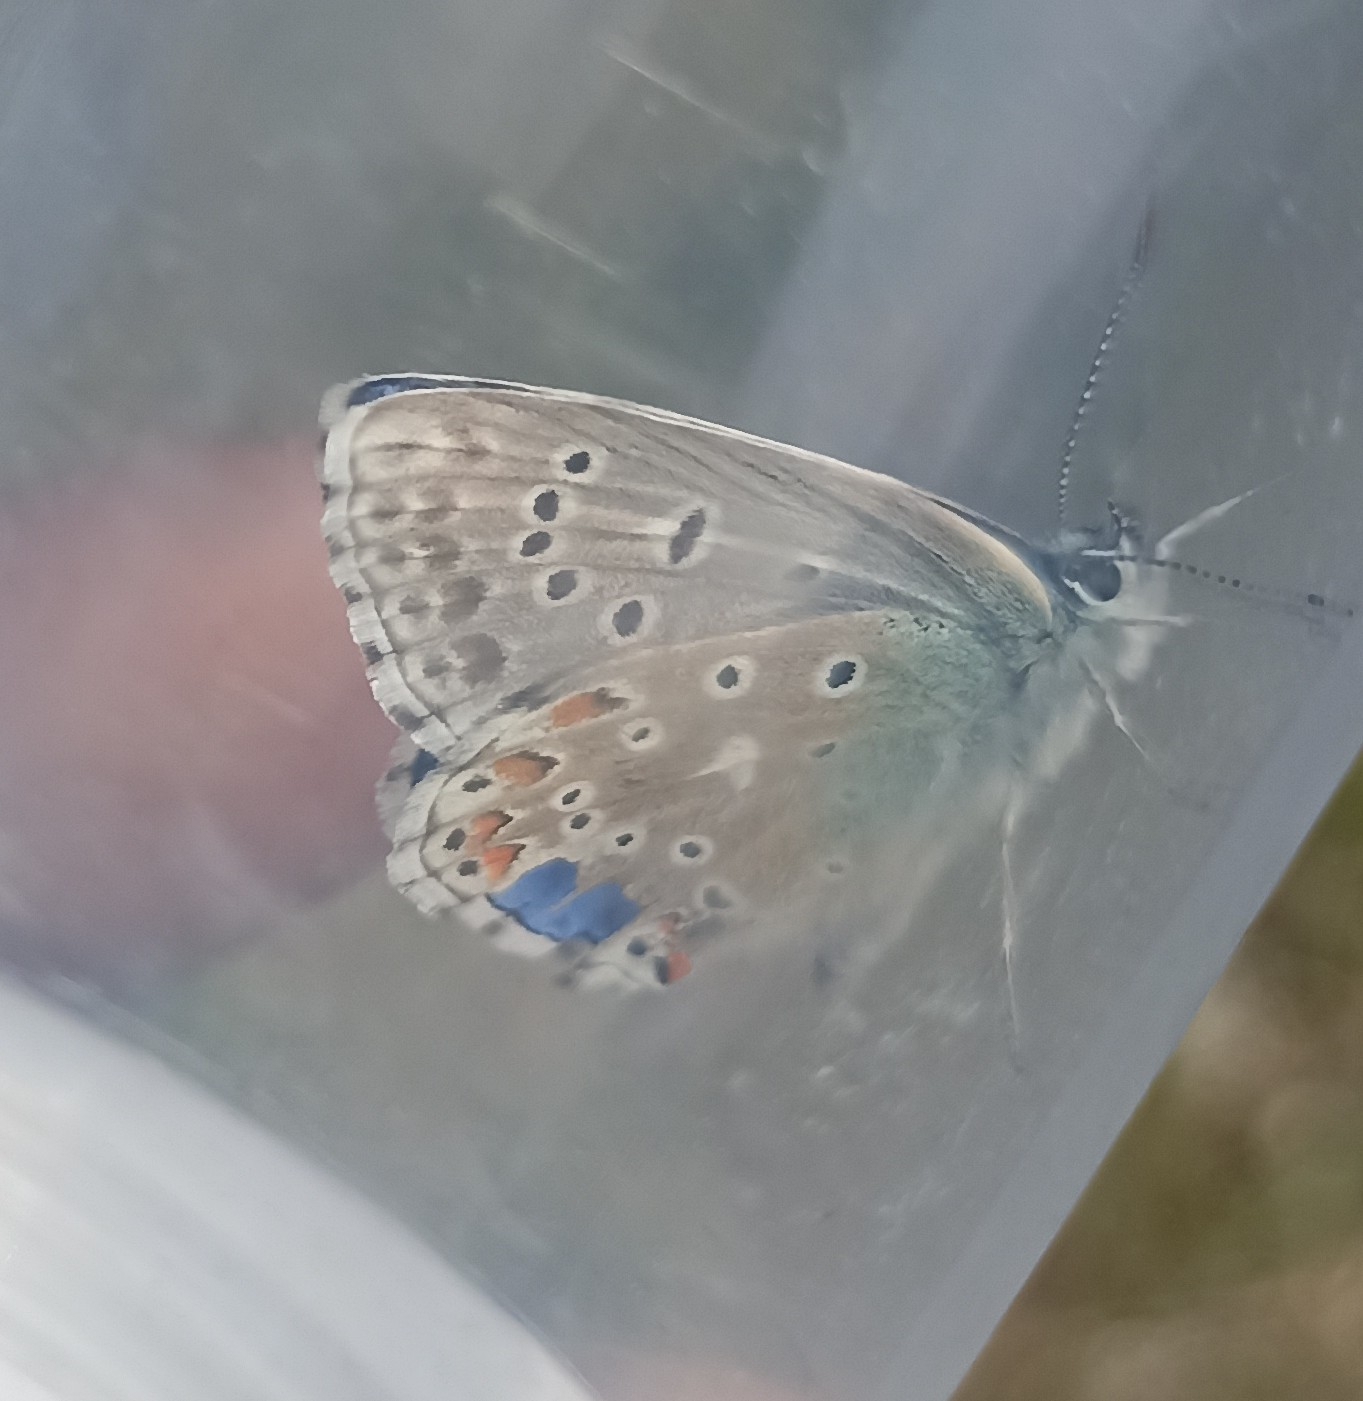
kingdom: Animalia
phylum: Arthropoda
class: Insecta
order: Lepidoptera
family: Lycaenidae
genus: Lysandra
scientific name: Lysandra bellargus
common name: Adonis blue
